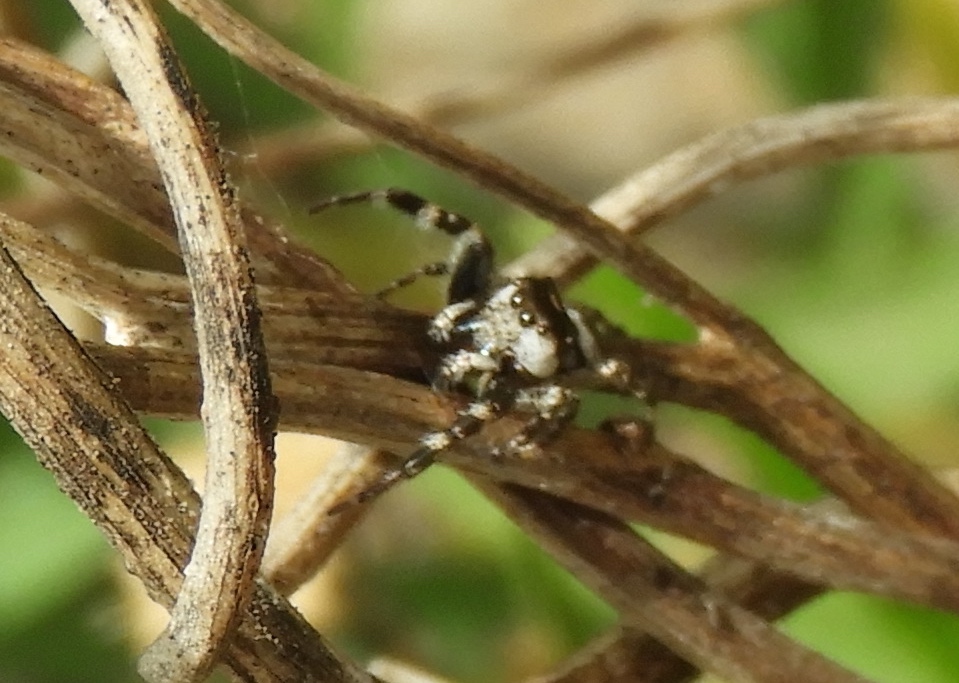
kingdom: Animalia
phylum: Arthropoda
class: Arachnida
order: Araneae
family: Salticidae
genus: Dendryphantes
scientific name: Dendryphantes zygoballoides
